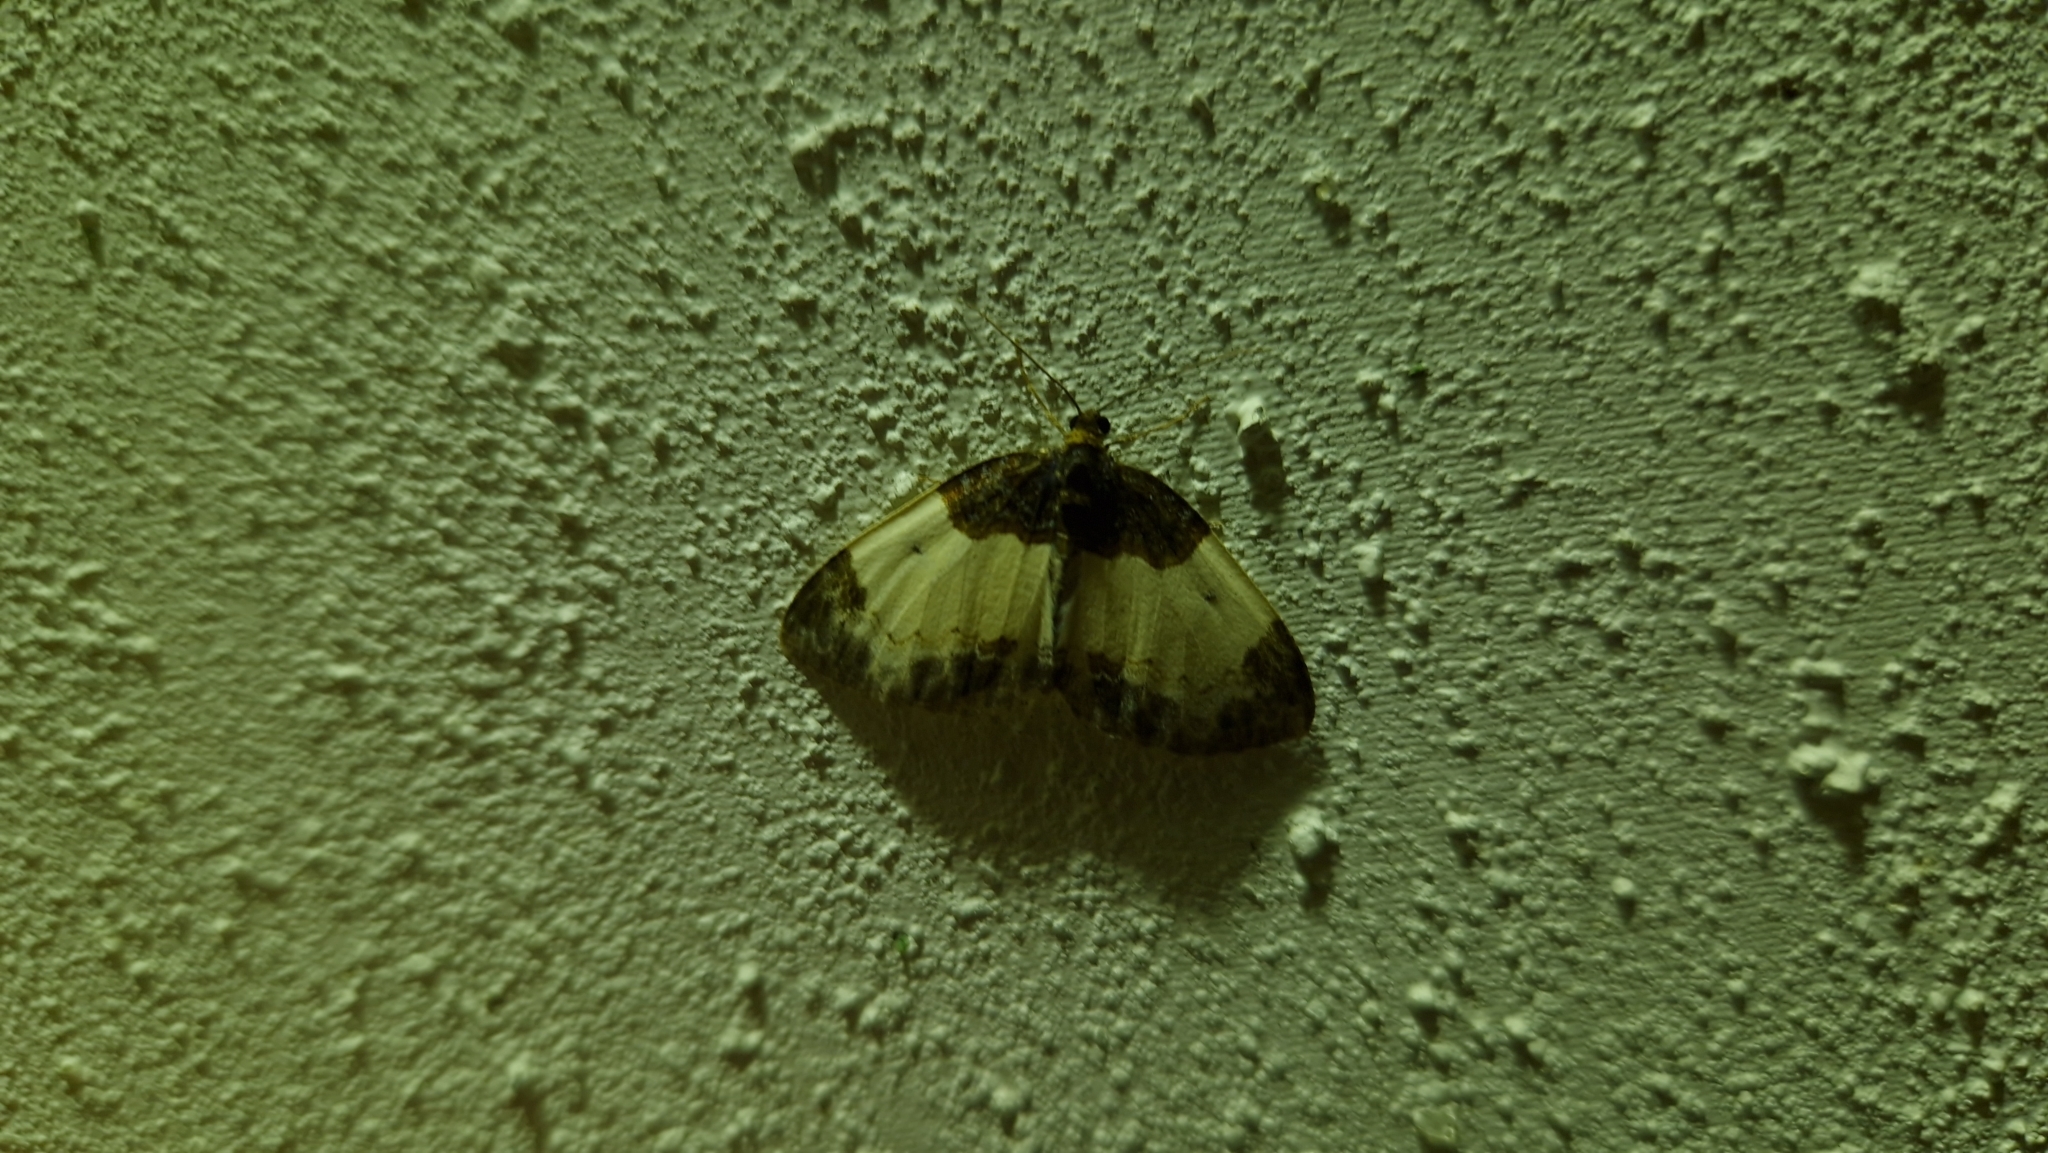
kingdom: Animalia
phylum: Arthropoda
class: Insecta
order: Lepidoptera
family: Geometridae
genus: Mesoleuca
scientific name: Mesoleuca albicillata
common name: Beautiful carpet
